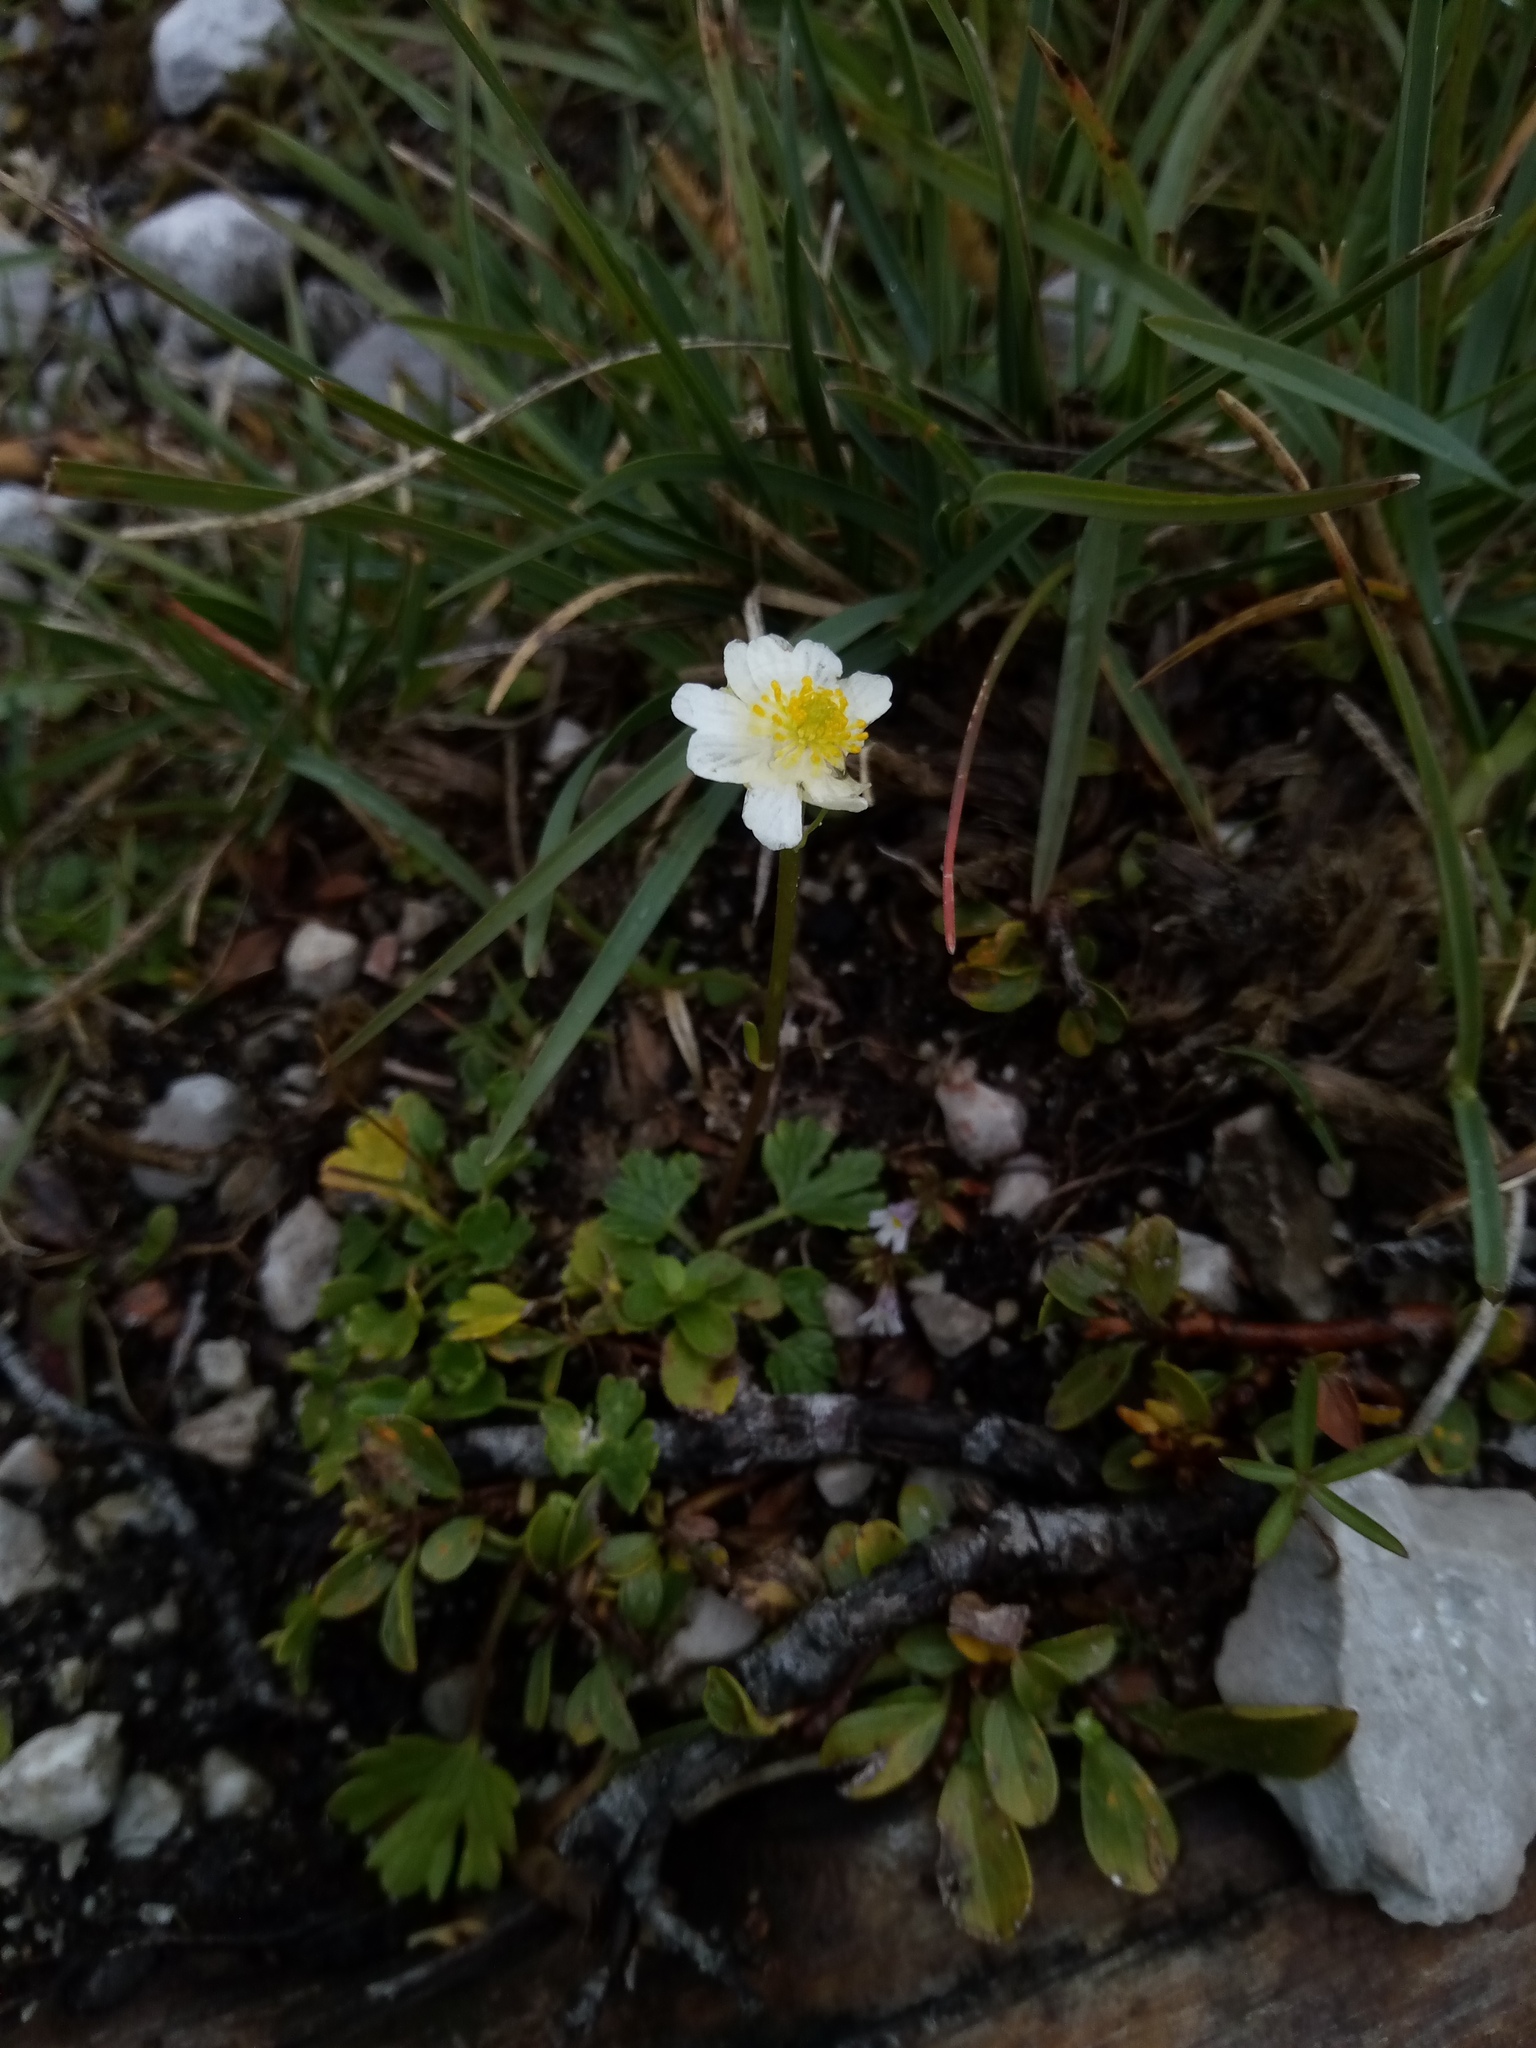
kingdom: Plantae
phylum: Tracheophyta
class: Magnoliopsida
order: Ranunculales
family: Ranunculaceae
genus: Ranunculus
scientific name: Ranunculus alpestris
